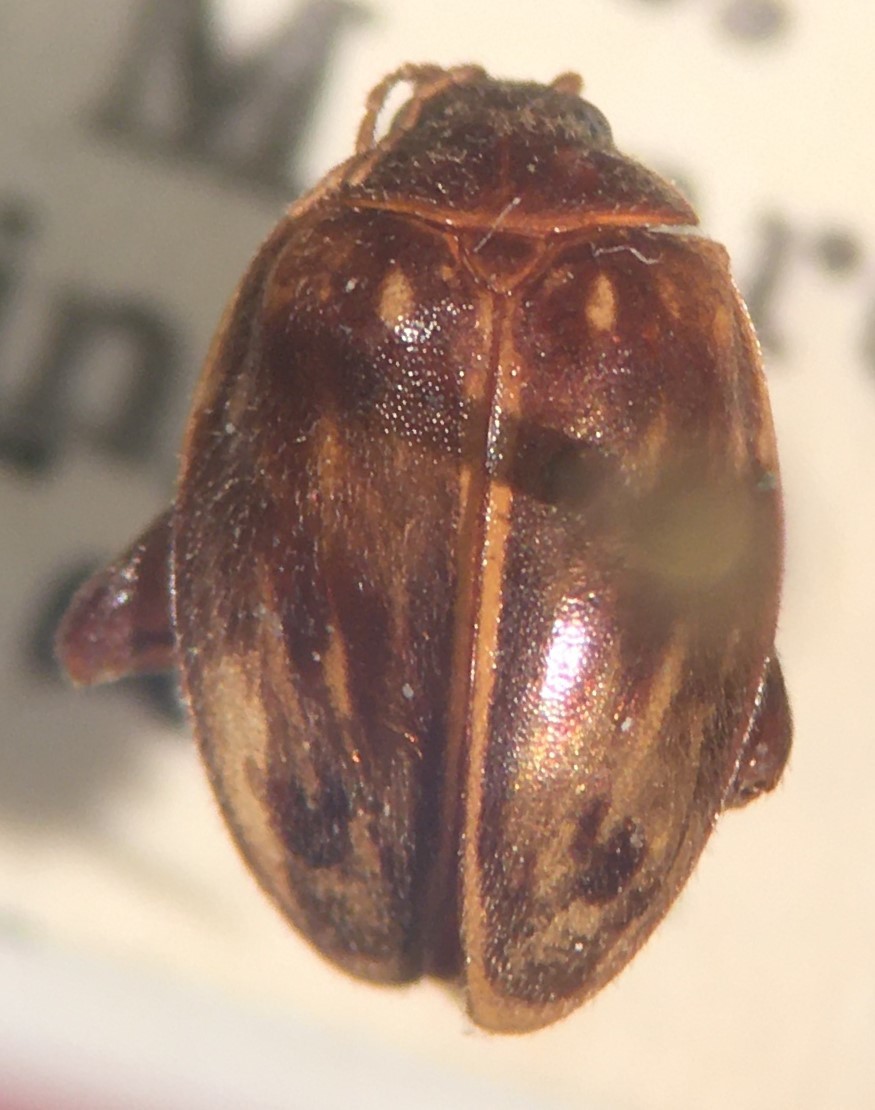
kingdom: Animalia
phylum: Arthropoda
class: Insecta
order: Coleoptera
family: Scirtidae
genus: Ora
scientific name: Ora texana
